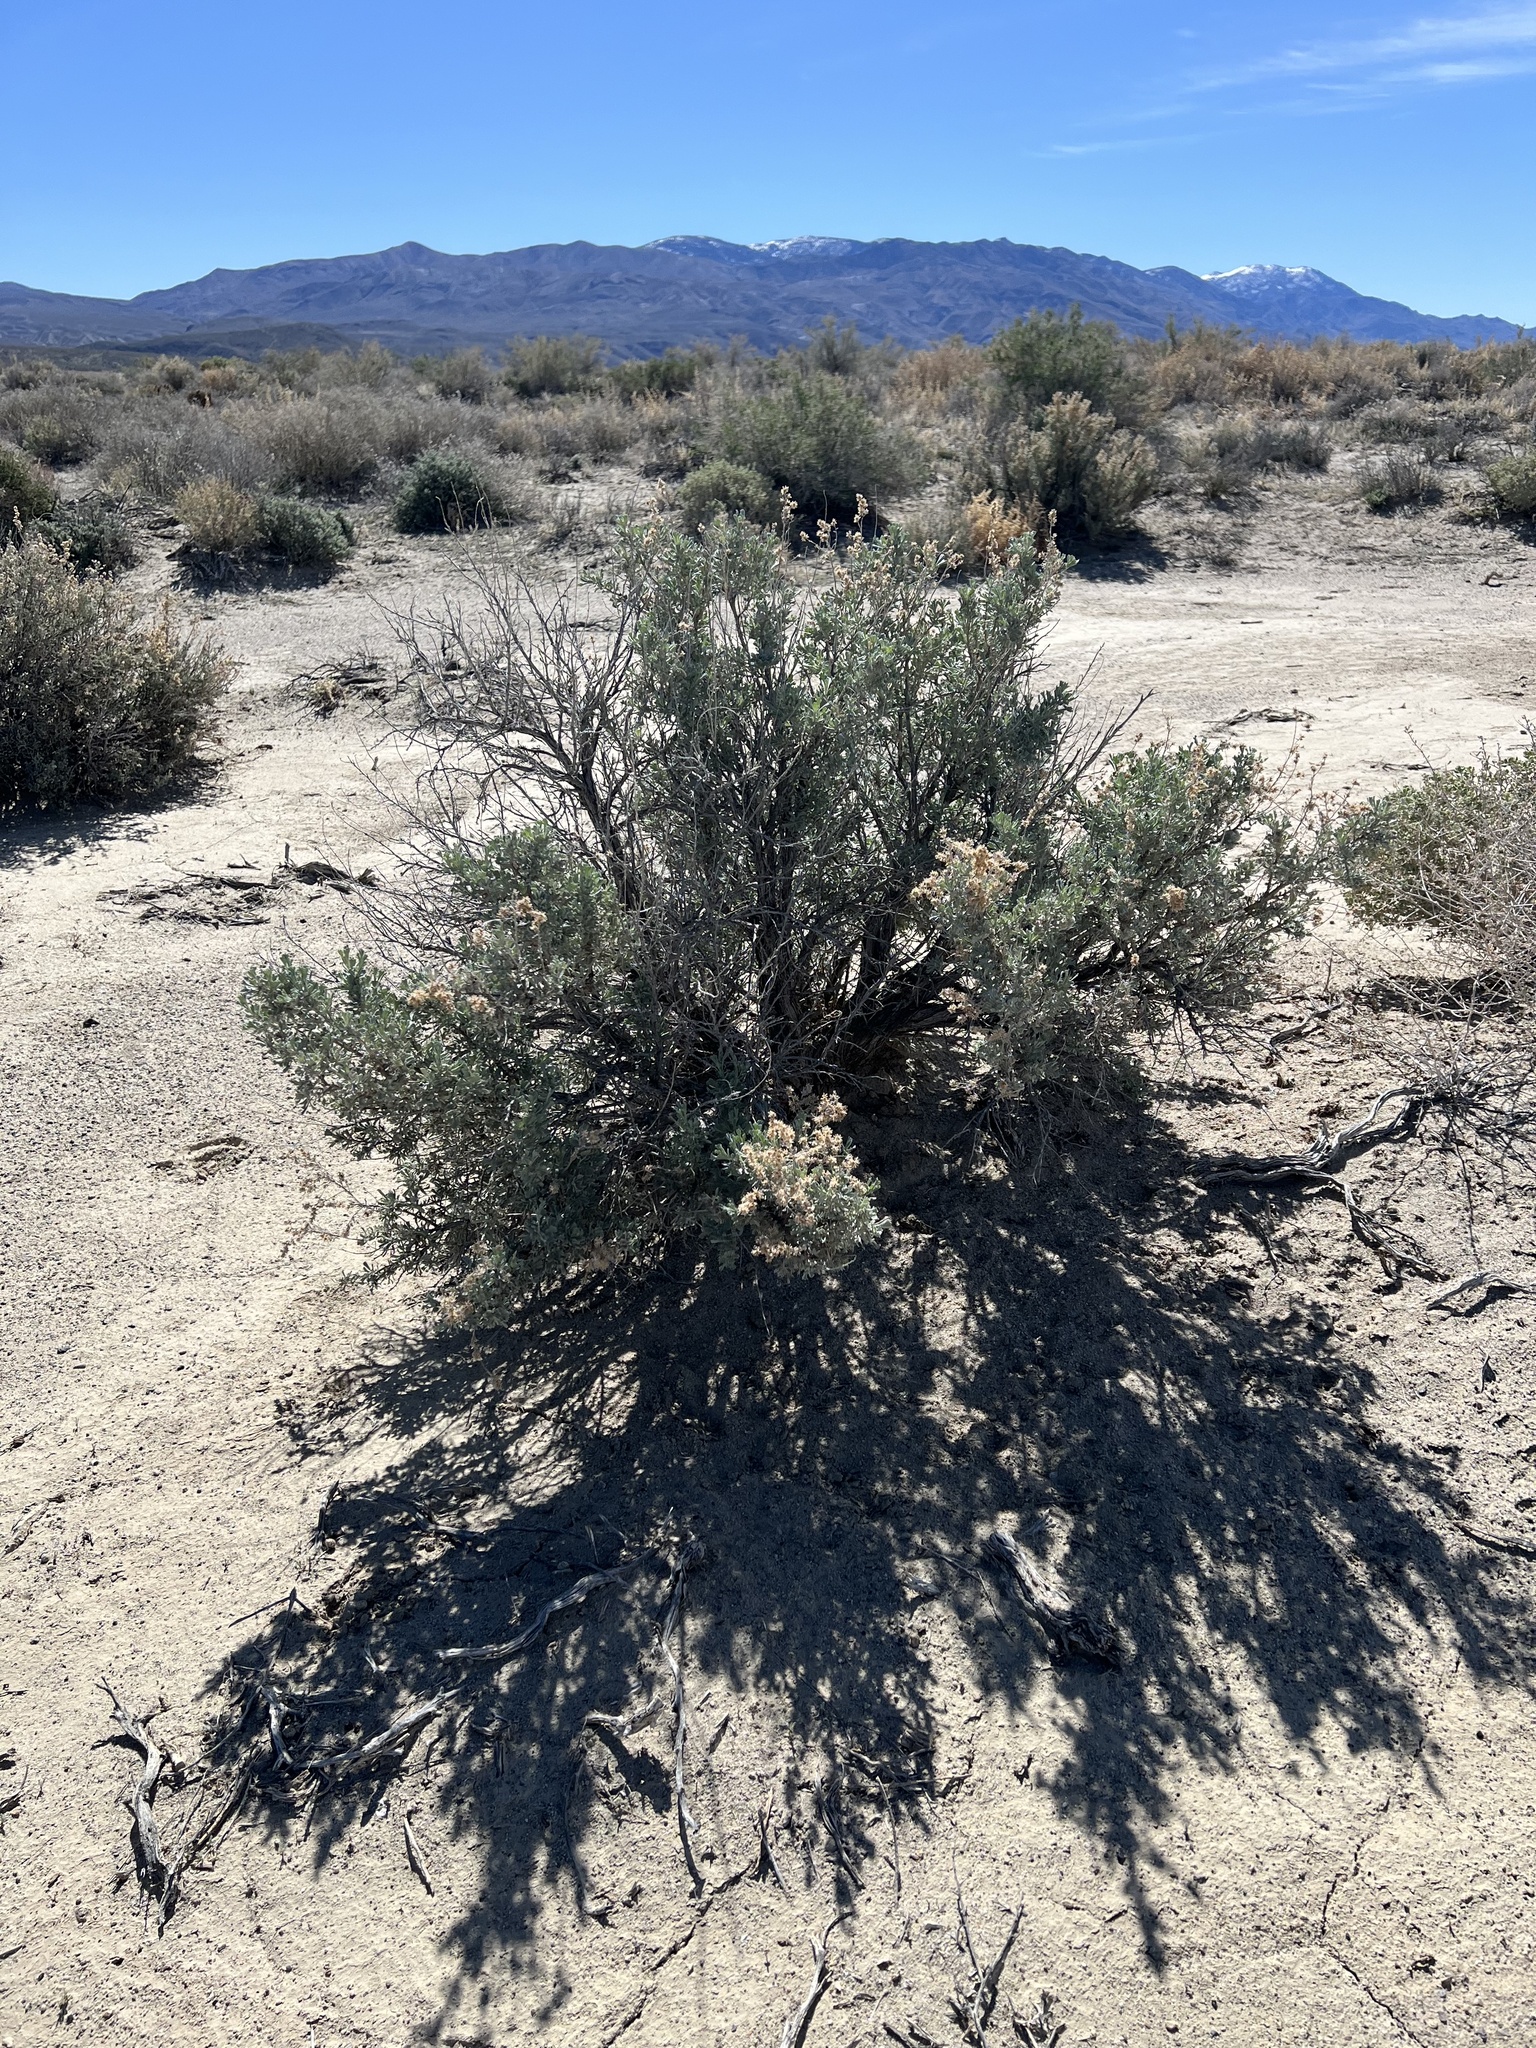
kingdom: Plantae
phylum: Tracheophyta
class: Magnoliopsida
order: Asterales
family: Asteraceae
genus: Artemisia
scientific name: Artemisia tridentata
